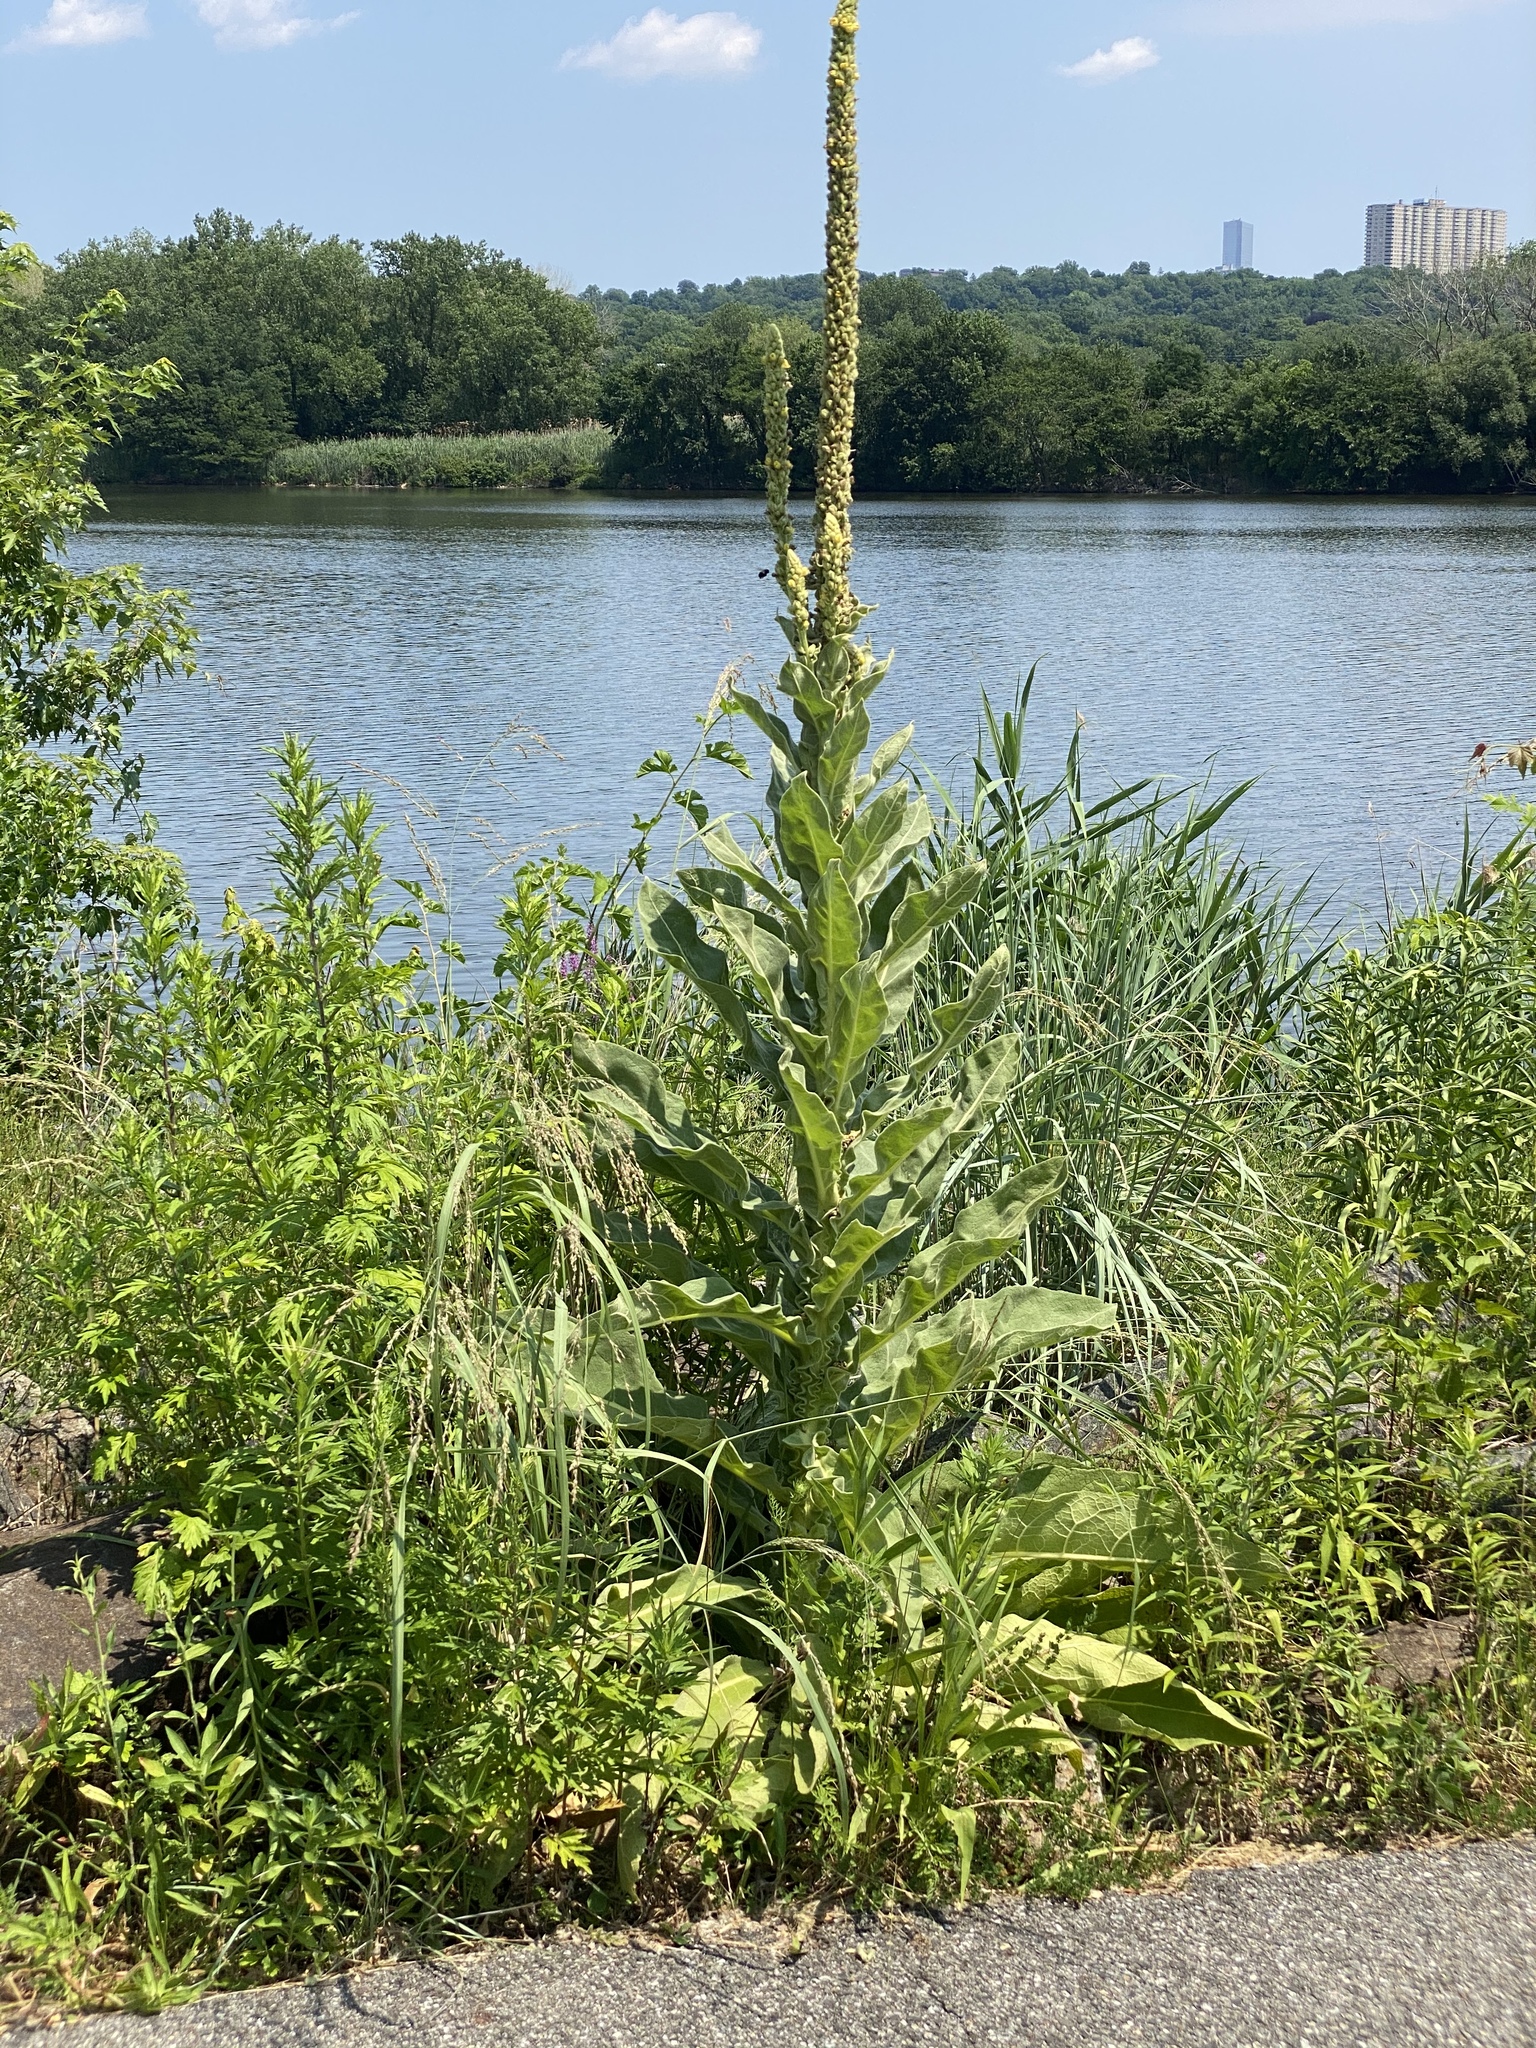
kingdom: Plantae
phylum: Tracheophyta
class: Magnoliopsida
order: Lamiales
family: Scrophulariaceae
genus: Verbascum
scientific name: Verbascum thapsus
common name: Common mullein
